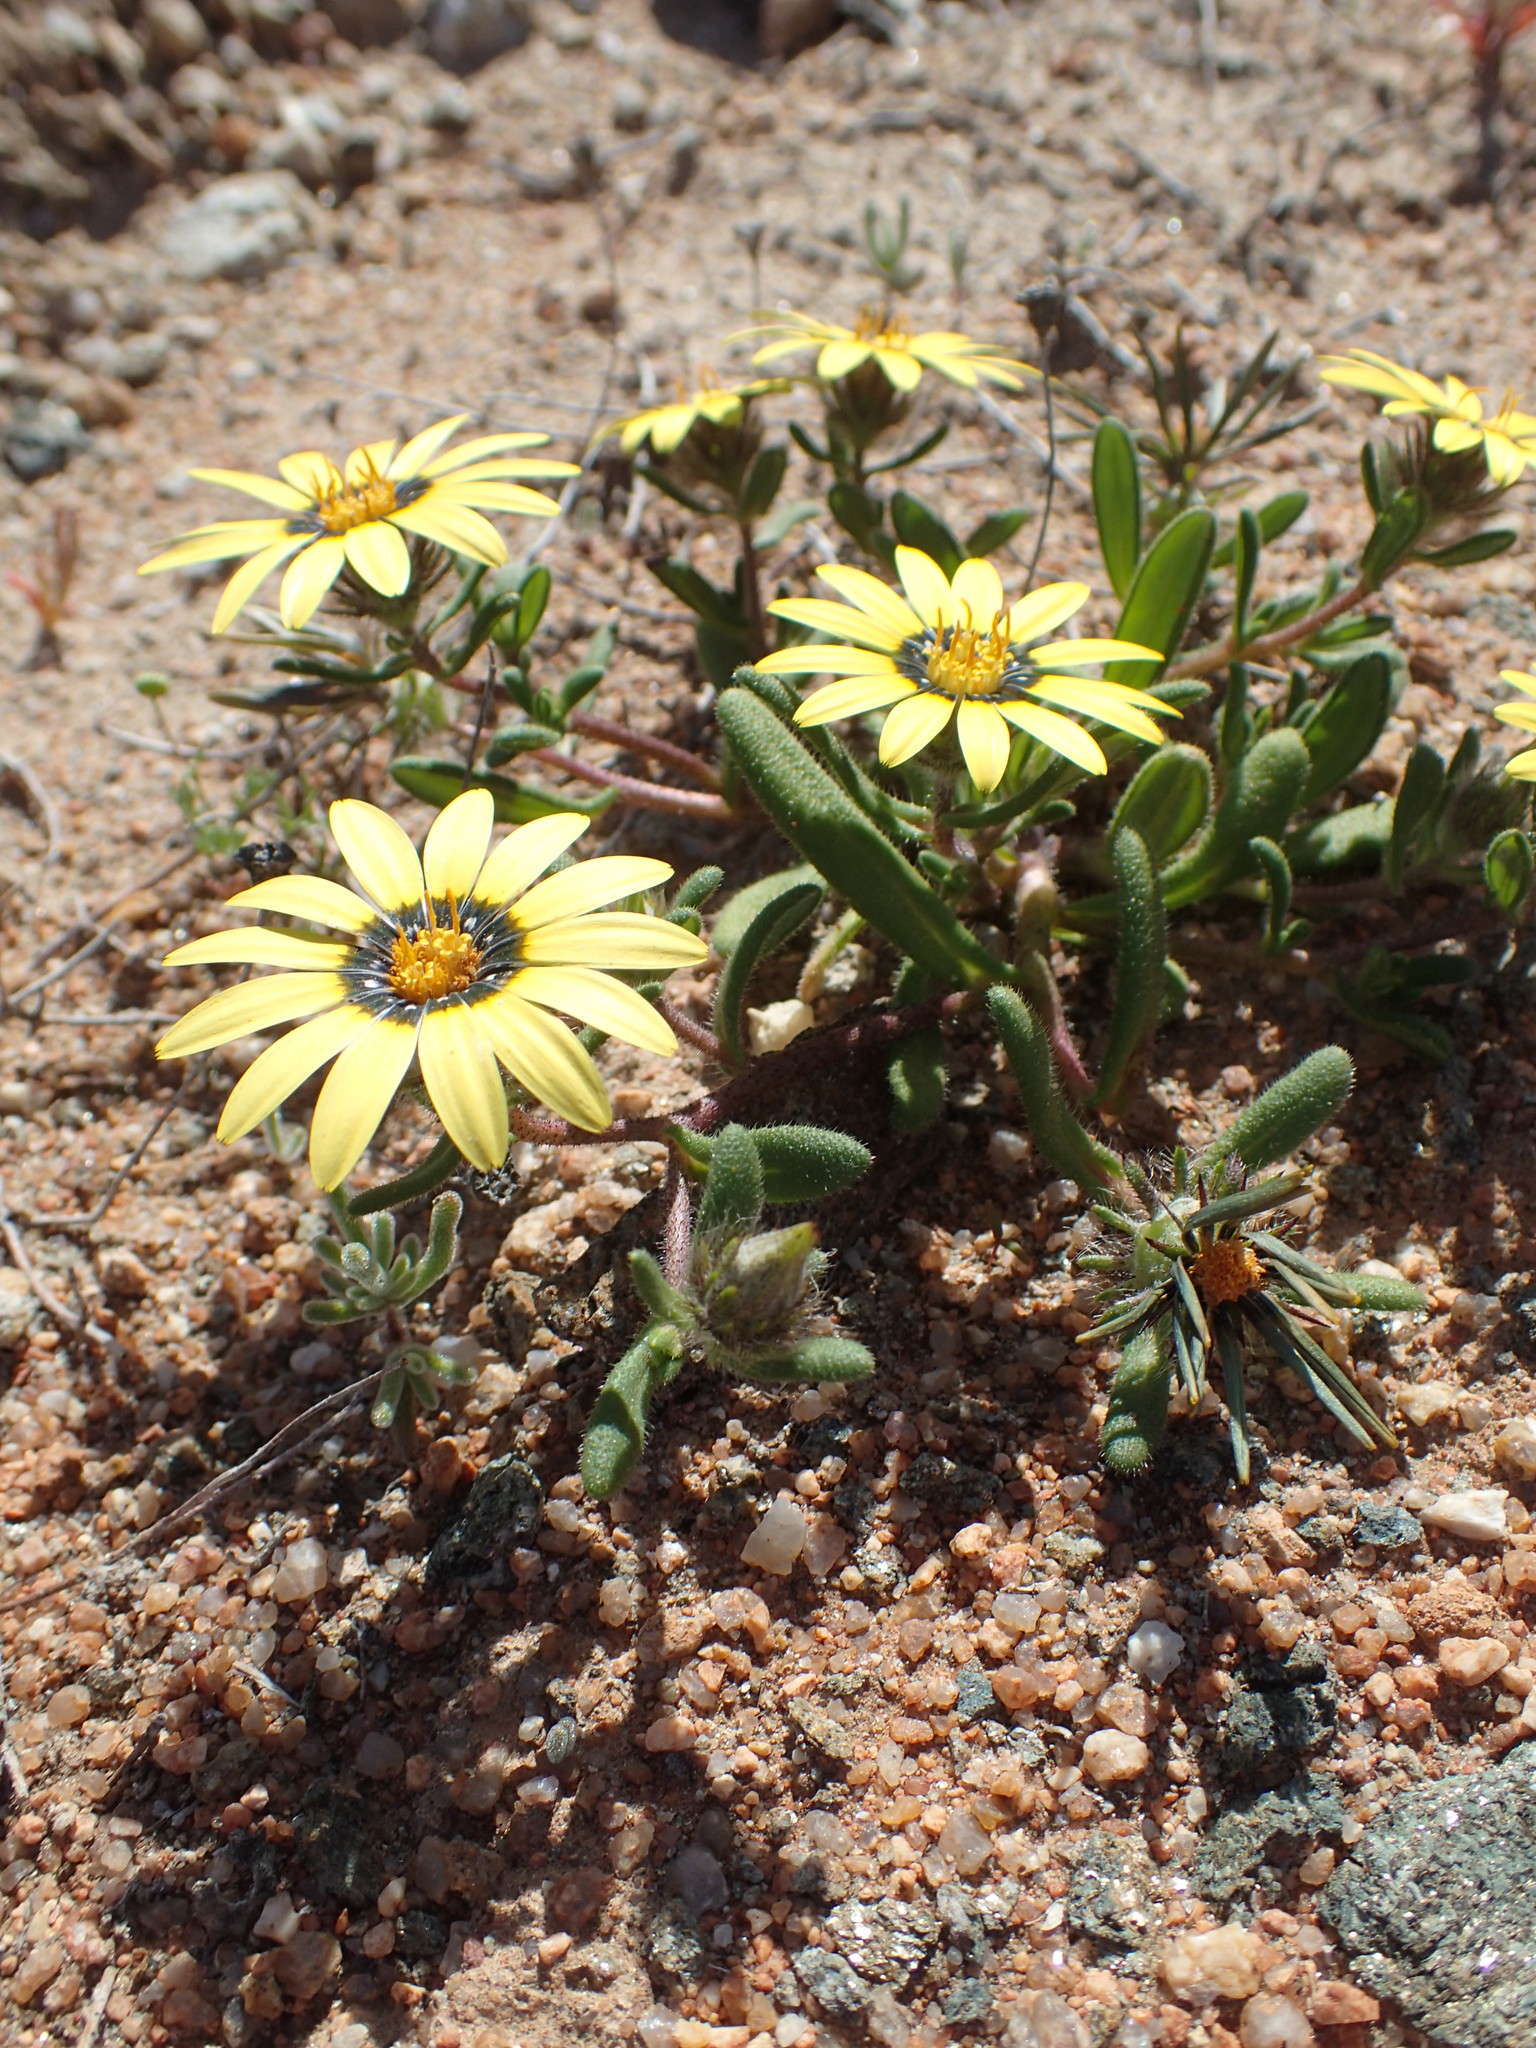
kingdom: Plantae
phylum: Tracheophyta
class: Magnoliopsida
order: Asterales
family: Asteraceae
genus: Gorteria
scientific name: Gorteria diffusa
